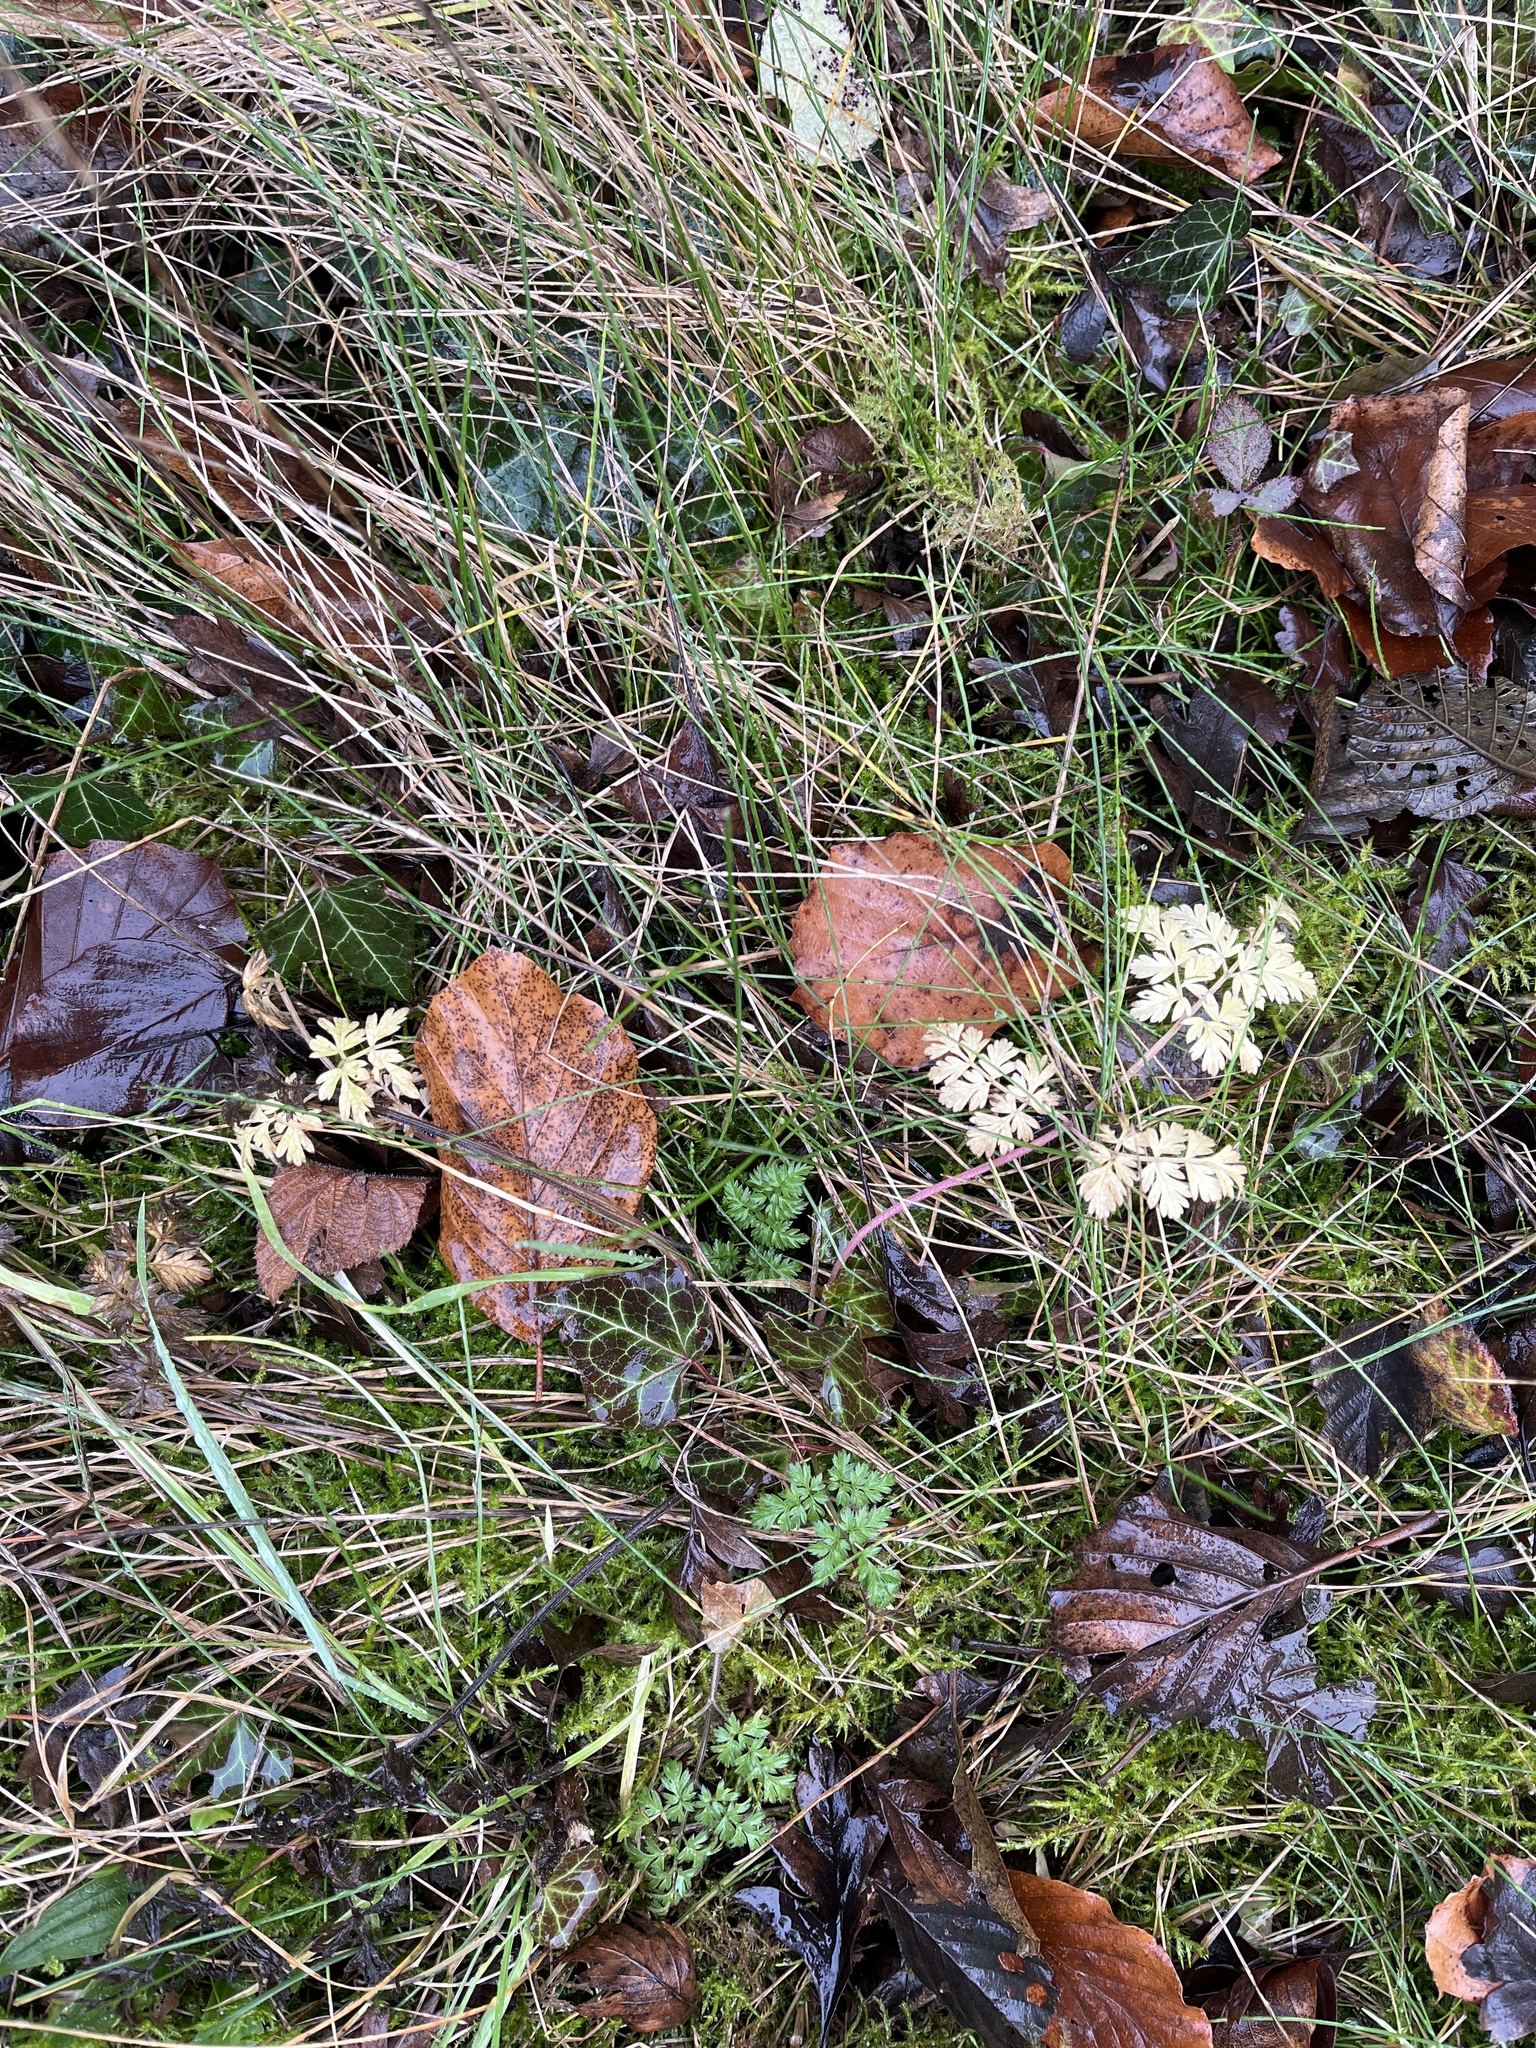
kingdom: Plantae
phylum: Tracheophyta
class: Magnoliopsida
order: Apiales
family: Apiaceae
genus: Anthriscus
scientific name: Anthriscus sylvestris
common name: Cow parsley
